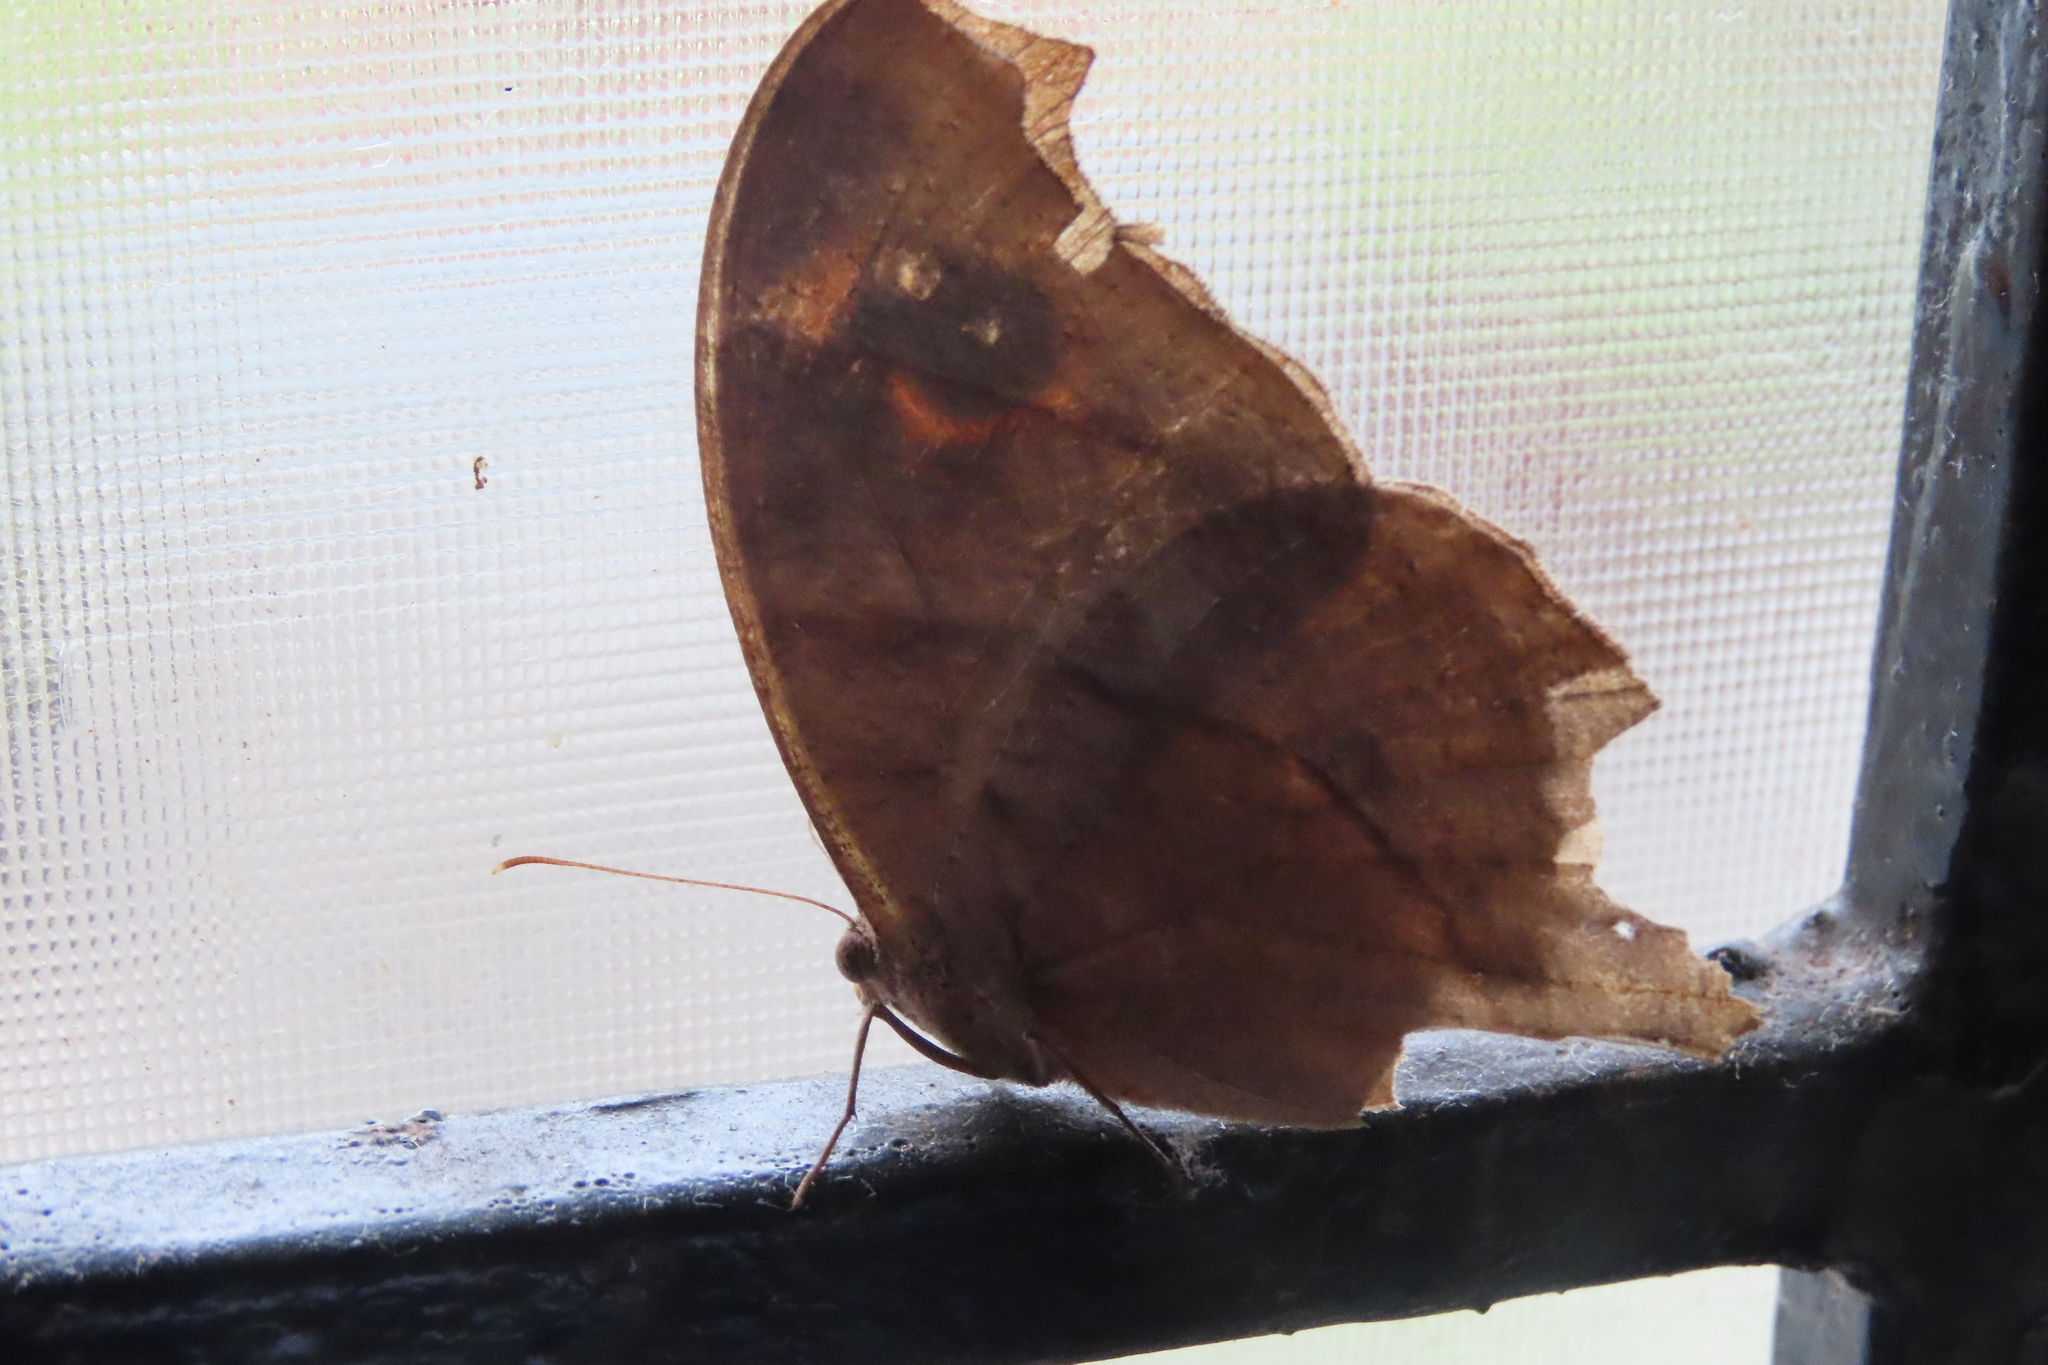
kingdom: Animalia
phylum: Arthropoda
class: Insecta
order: Lepidoptera
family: Nymphalidae
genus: Melanitis
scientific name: Melanitis leda
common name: Twilight brown
